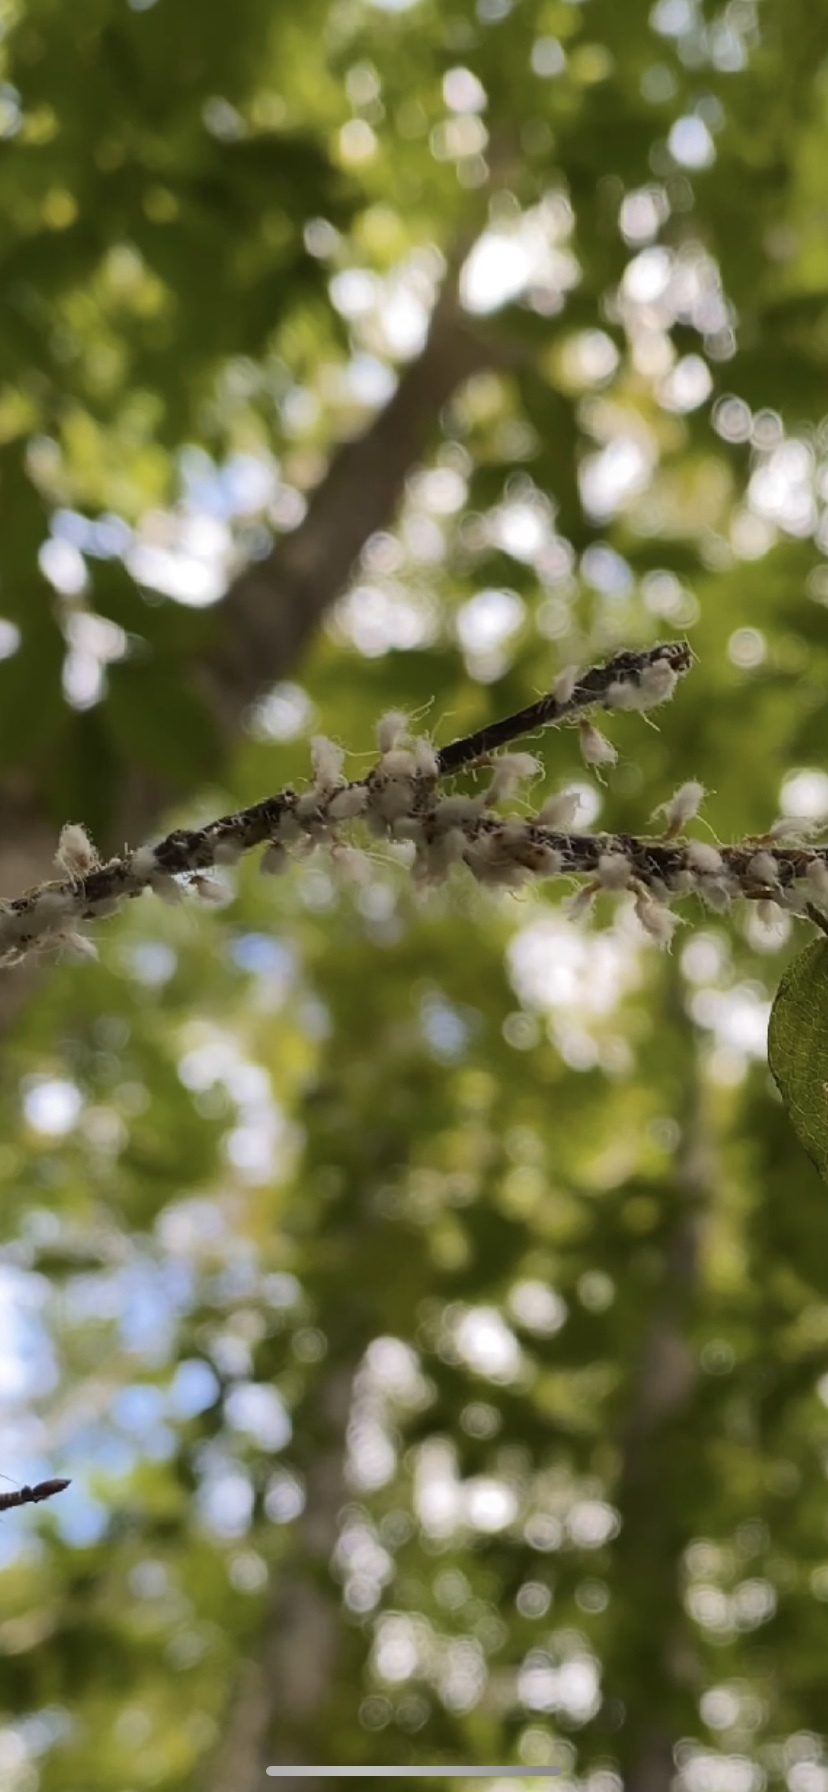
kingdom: Animalia
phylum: Arthropoda
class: Insecta
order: Hemiptera
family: Aphididae
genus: Grylloprociphilus
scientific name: Grylloprociphilus imbricator
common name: Beech blight aphid
